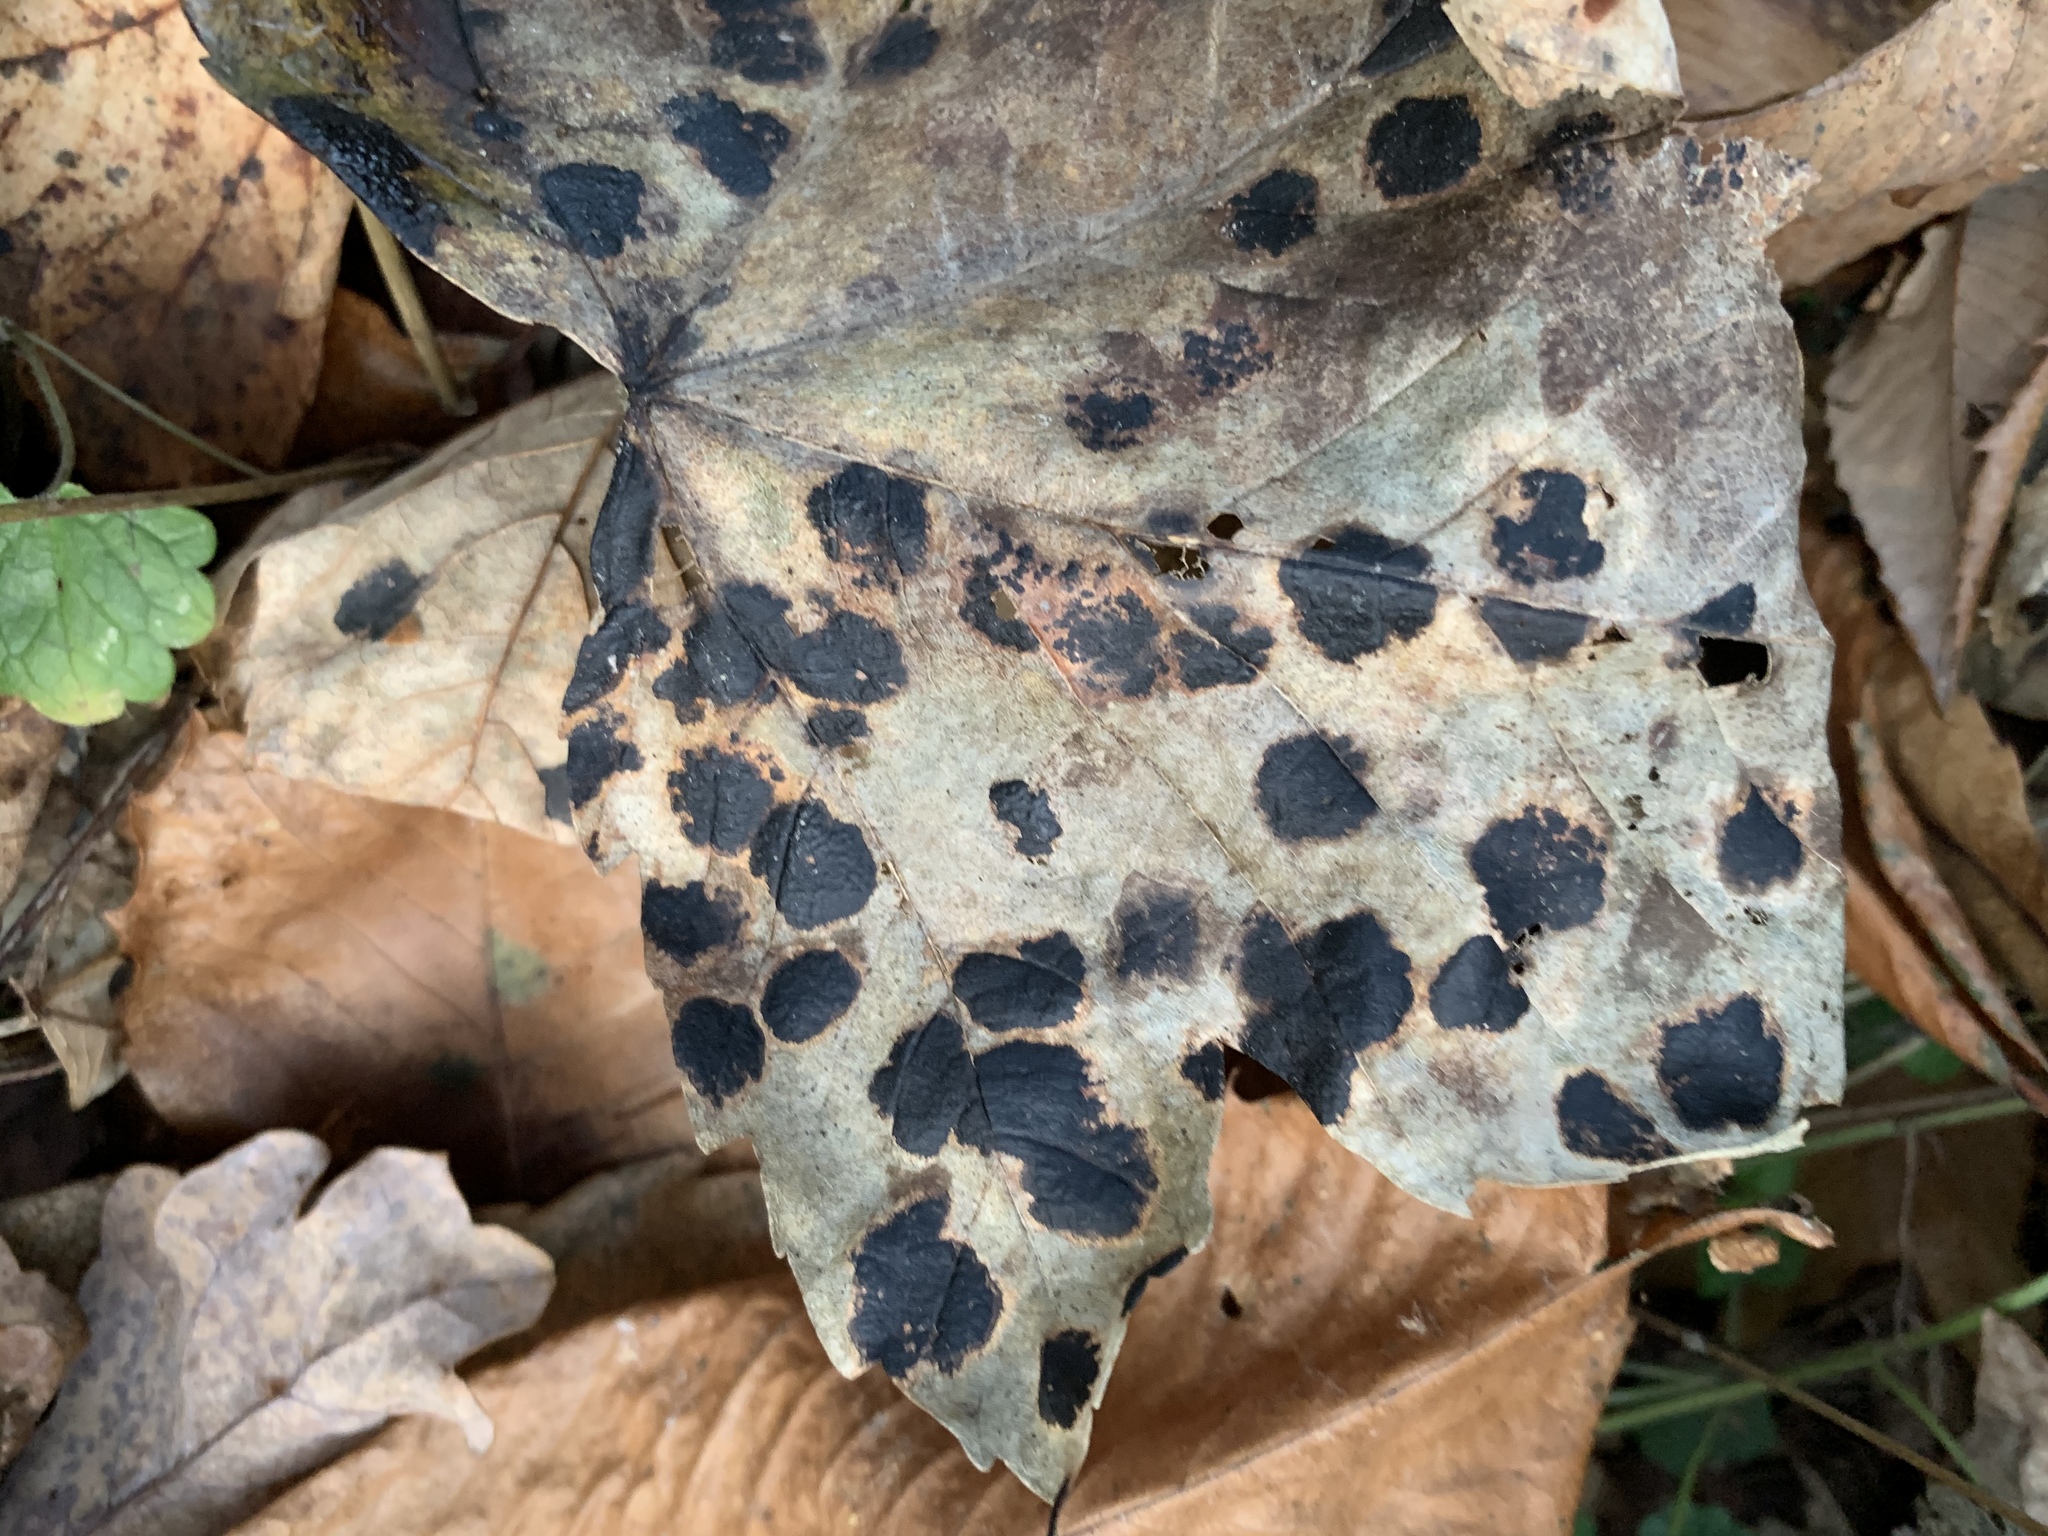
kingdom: Fungi
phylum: Ascomycota
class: Leotiomycetes
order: Rhytismatales
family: Rhytismataceae
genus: Rhytisma
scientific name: Rhytisma acerinum
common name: European tar spot
